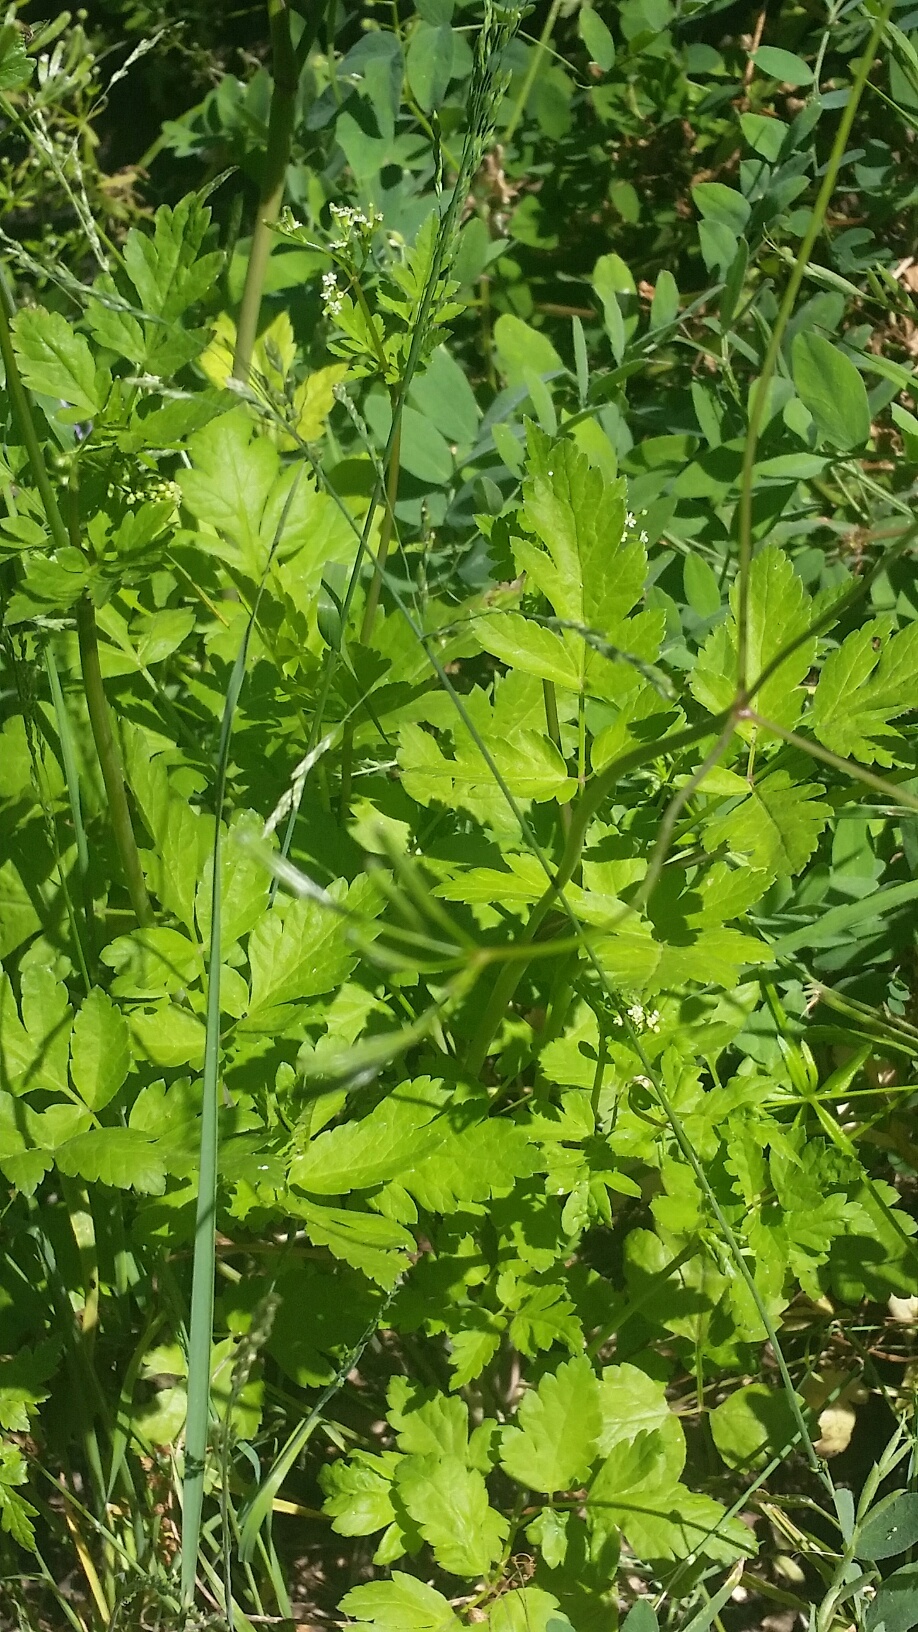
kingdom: Plantae
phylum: Tracheophyta
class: Magnoliopsida
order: Apiales
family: Apiaceae
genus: Osmorhiza
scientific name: Osmorhiza berteroi
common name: Mountain sweet cicely
